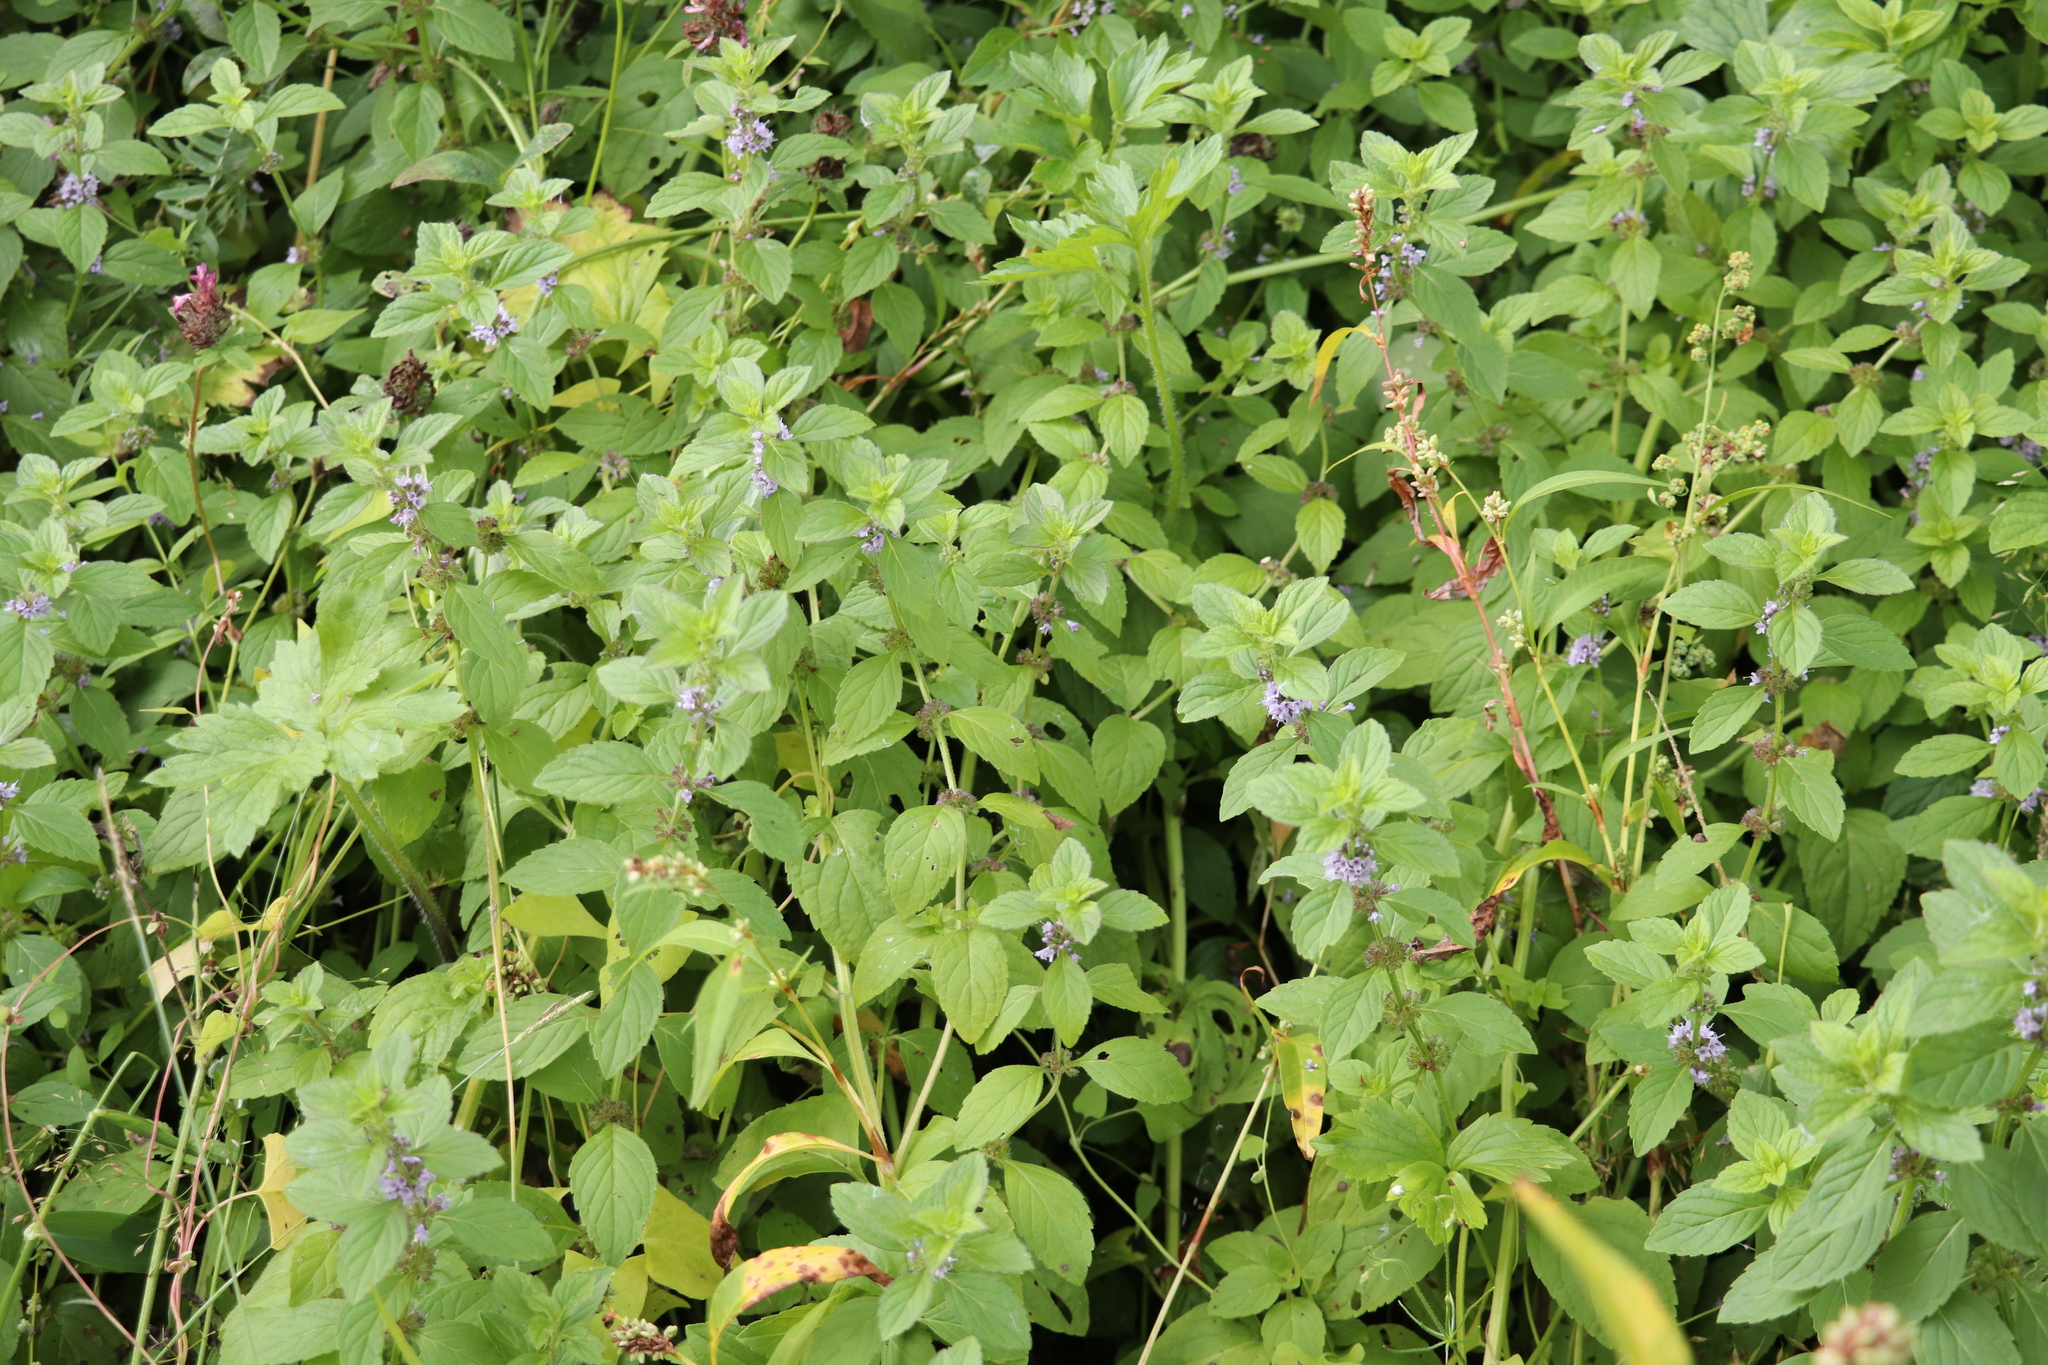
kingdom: Plantae
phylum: Tracheophyta
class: Magnoliopsida
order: Lamiales
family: Lamiaceae
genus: Mentha
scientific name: Mentha arvensis
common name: Corn mint
